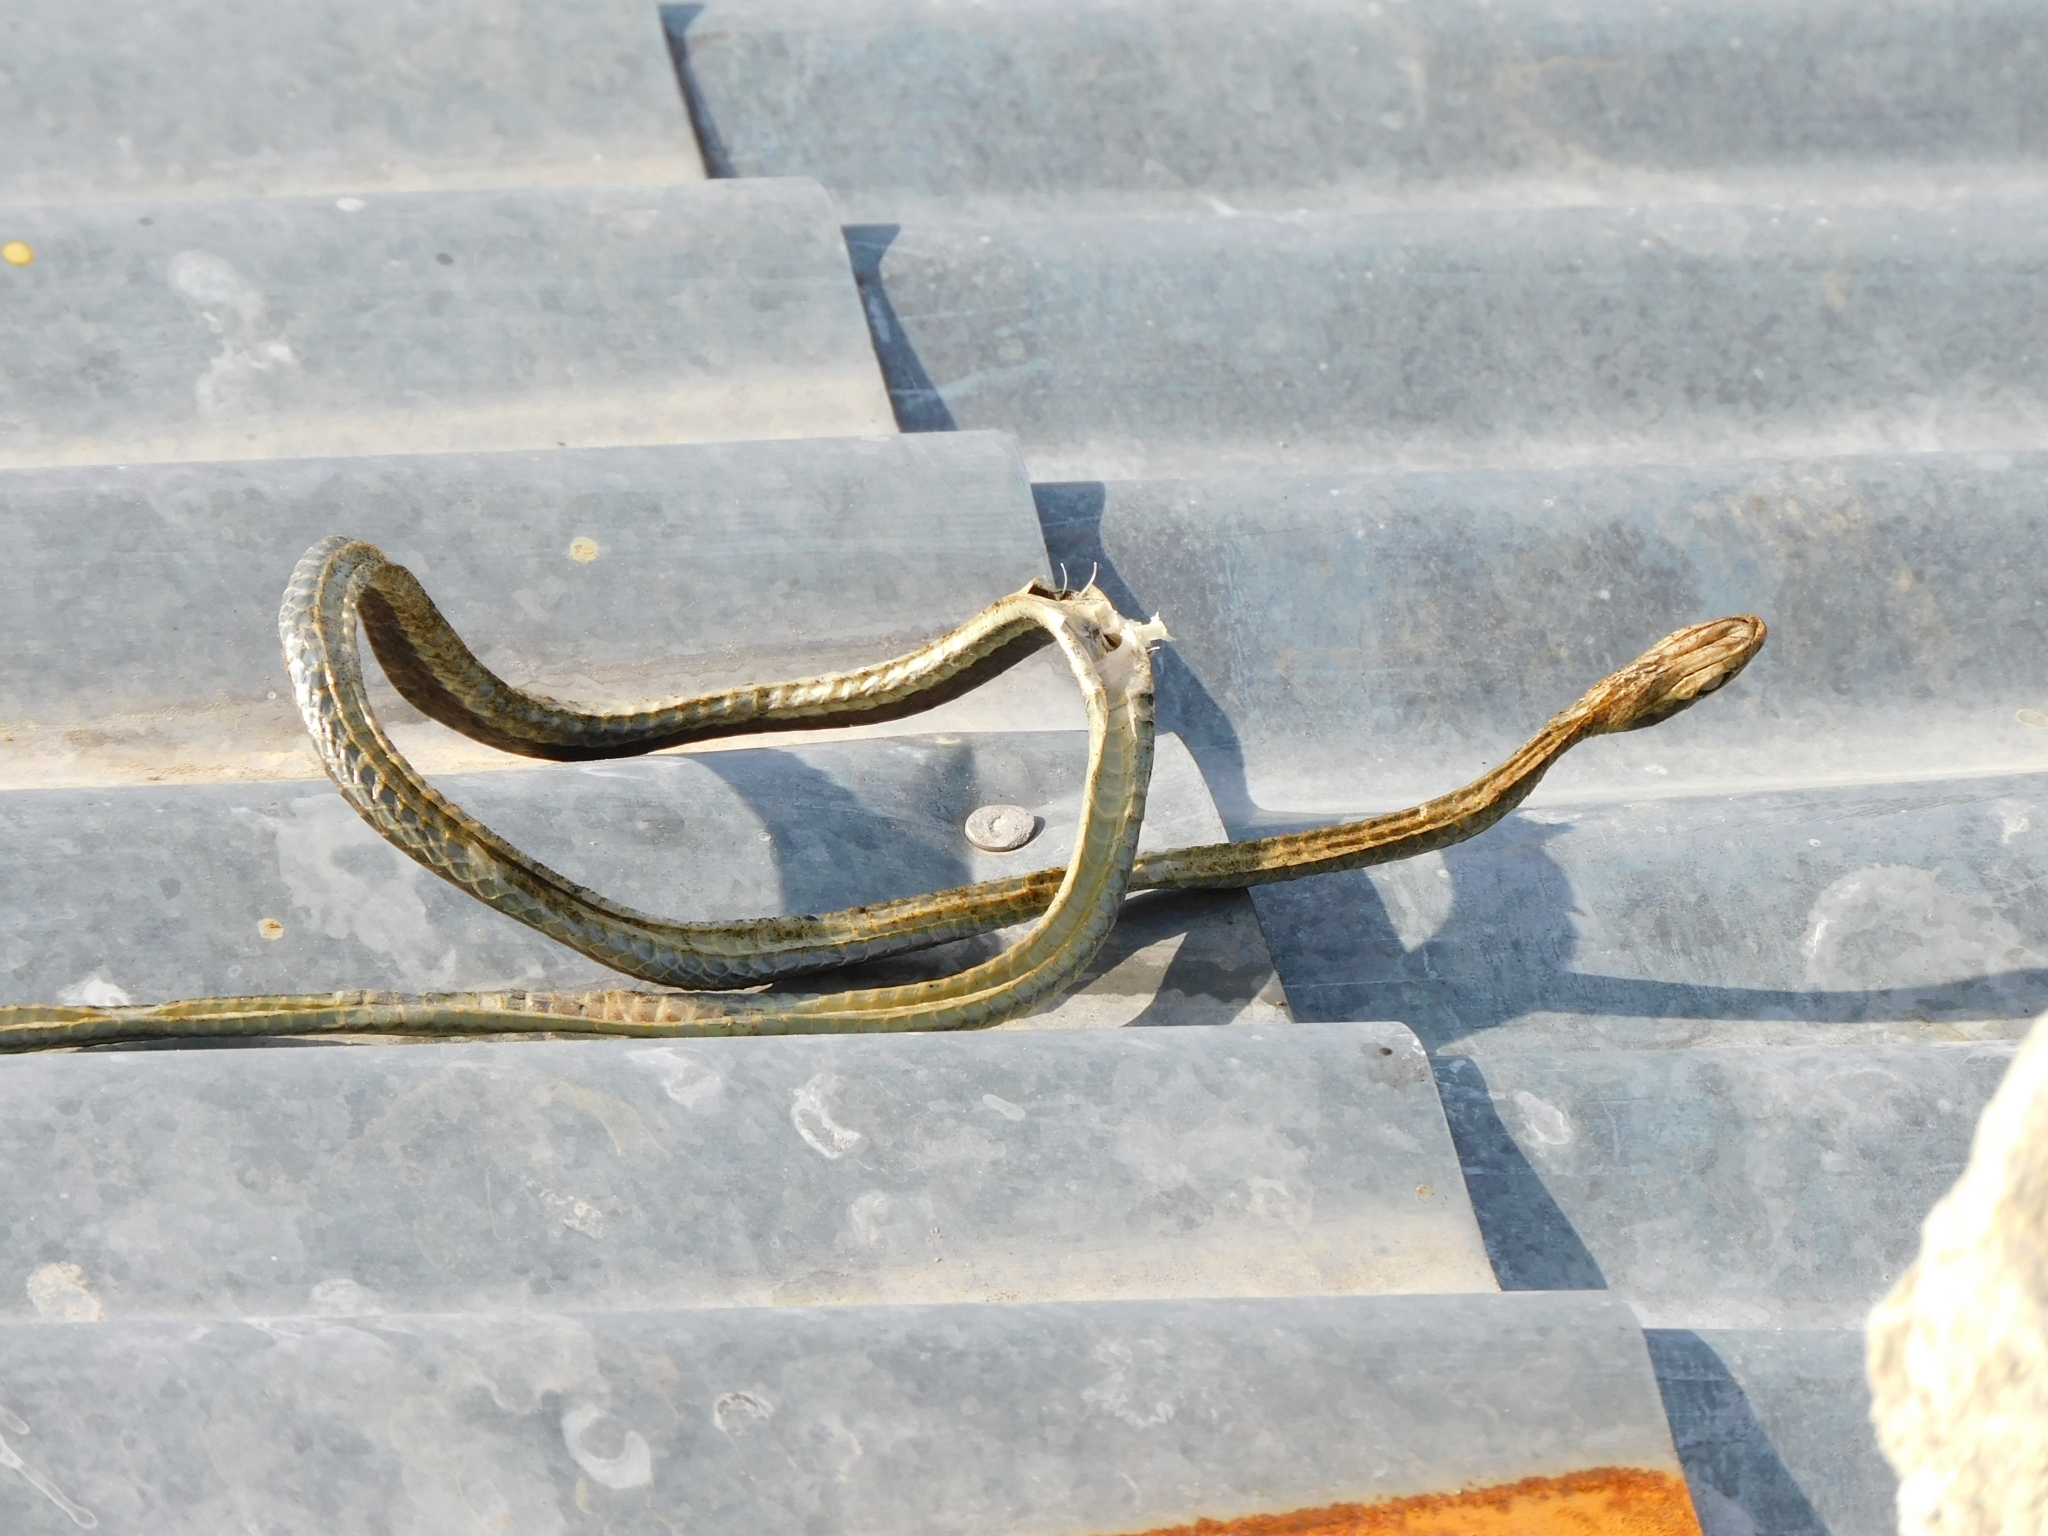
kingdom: Animalia
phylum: Chordata
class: Squamata
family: Colubridae
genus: Dendrelaphis
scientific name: Dendrelaphis tristis
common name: Daudin's bronzeback
